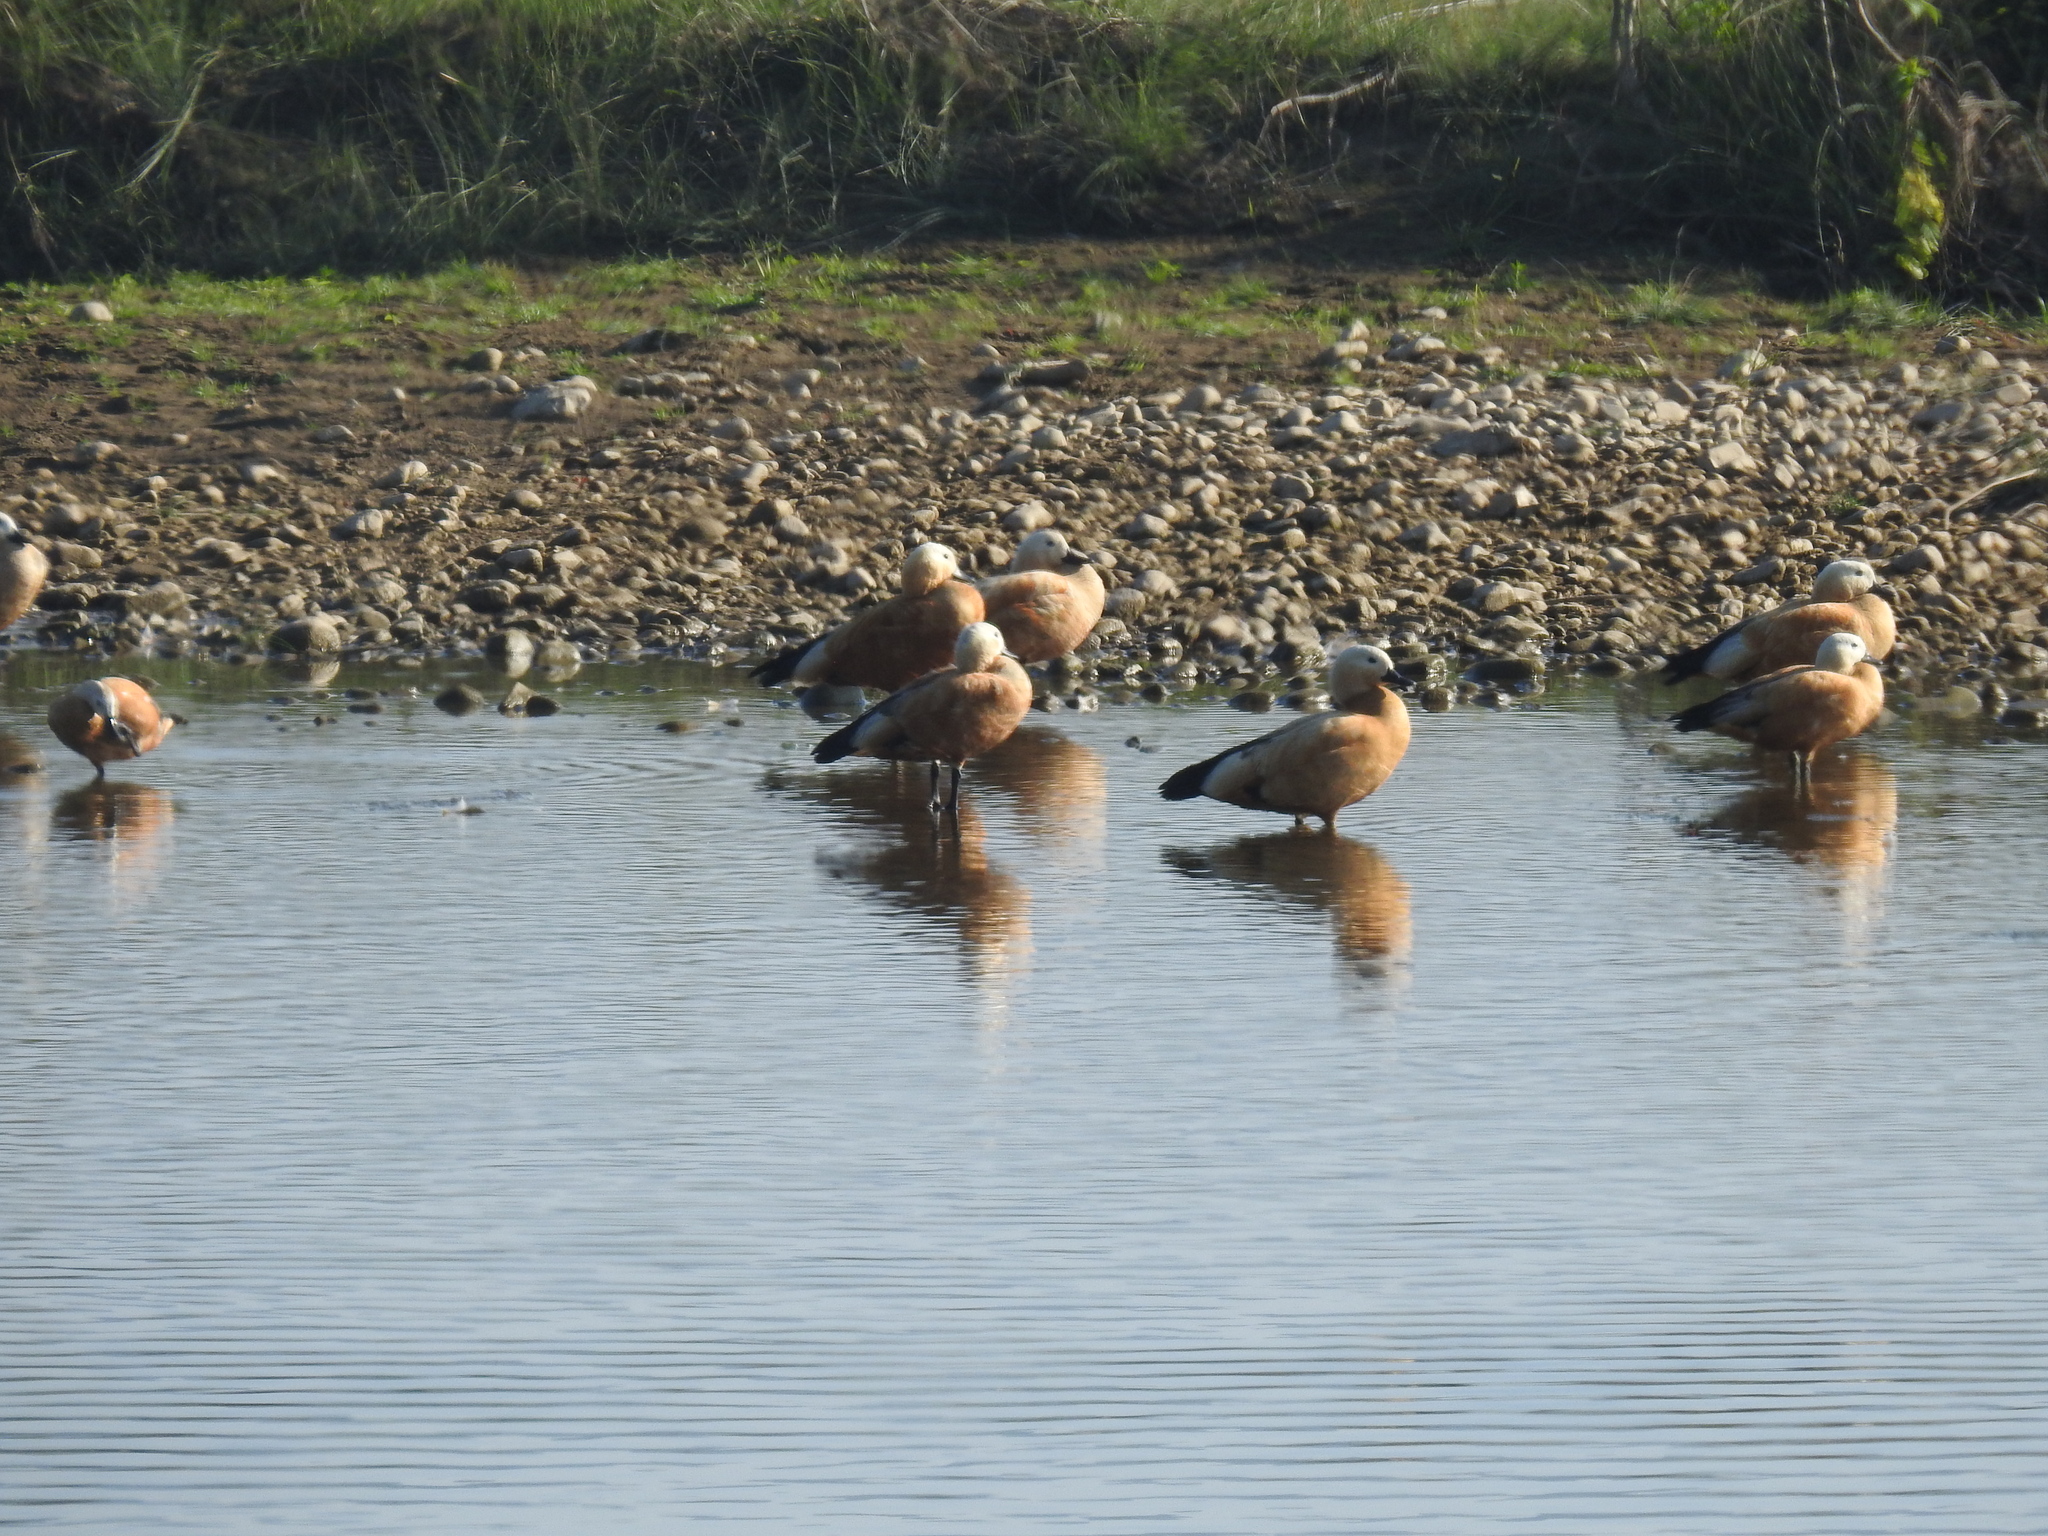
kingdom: Animalia
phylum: Chordata
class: Aves
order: Anseriformes
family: Anatidae
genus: Tadorna
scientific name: Tadorna ferruginea
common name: Ruddy shelduck
